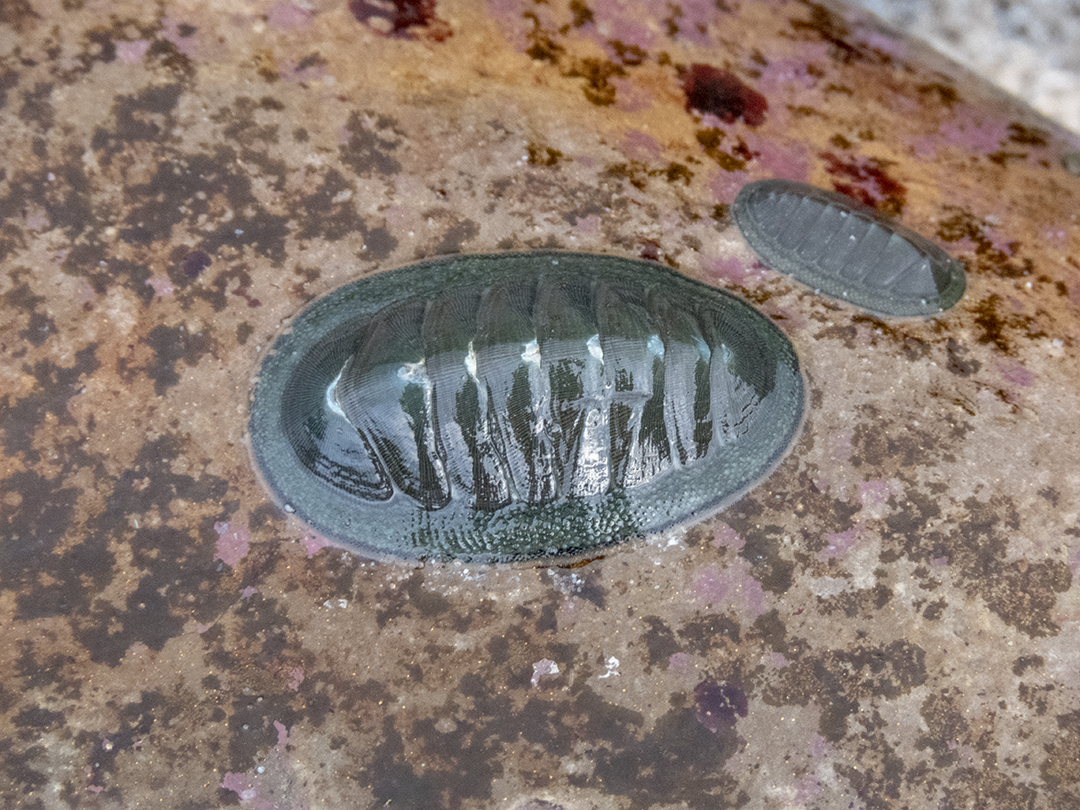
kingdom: Animalia
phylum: Mollusca
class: Polyplacophora
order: Chitonida
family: Chitonidae
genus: Chiton
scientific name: Chiton glaucus
